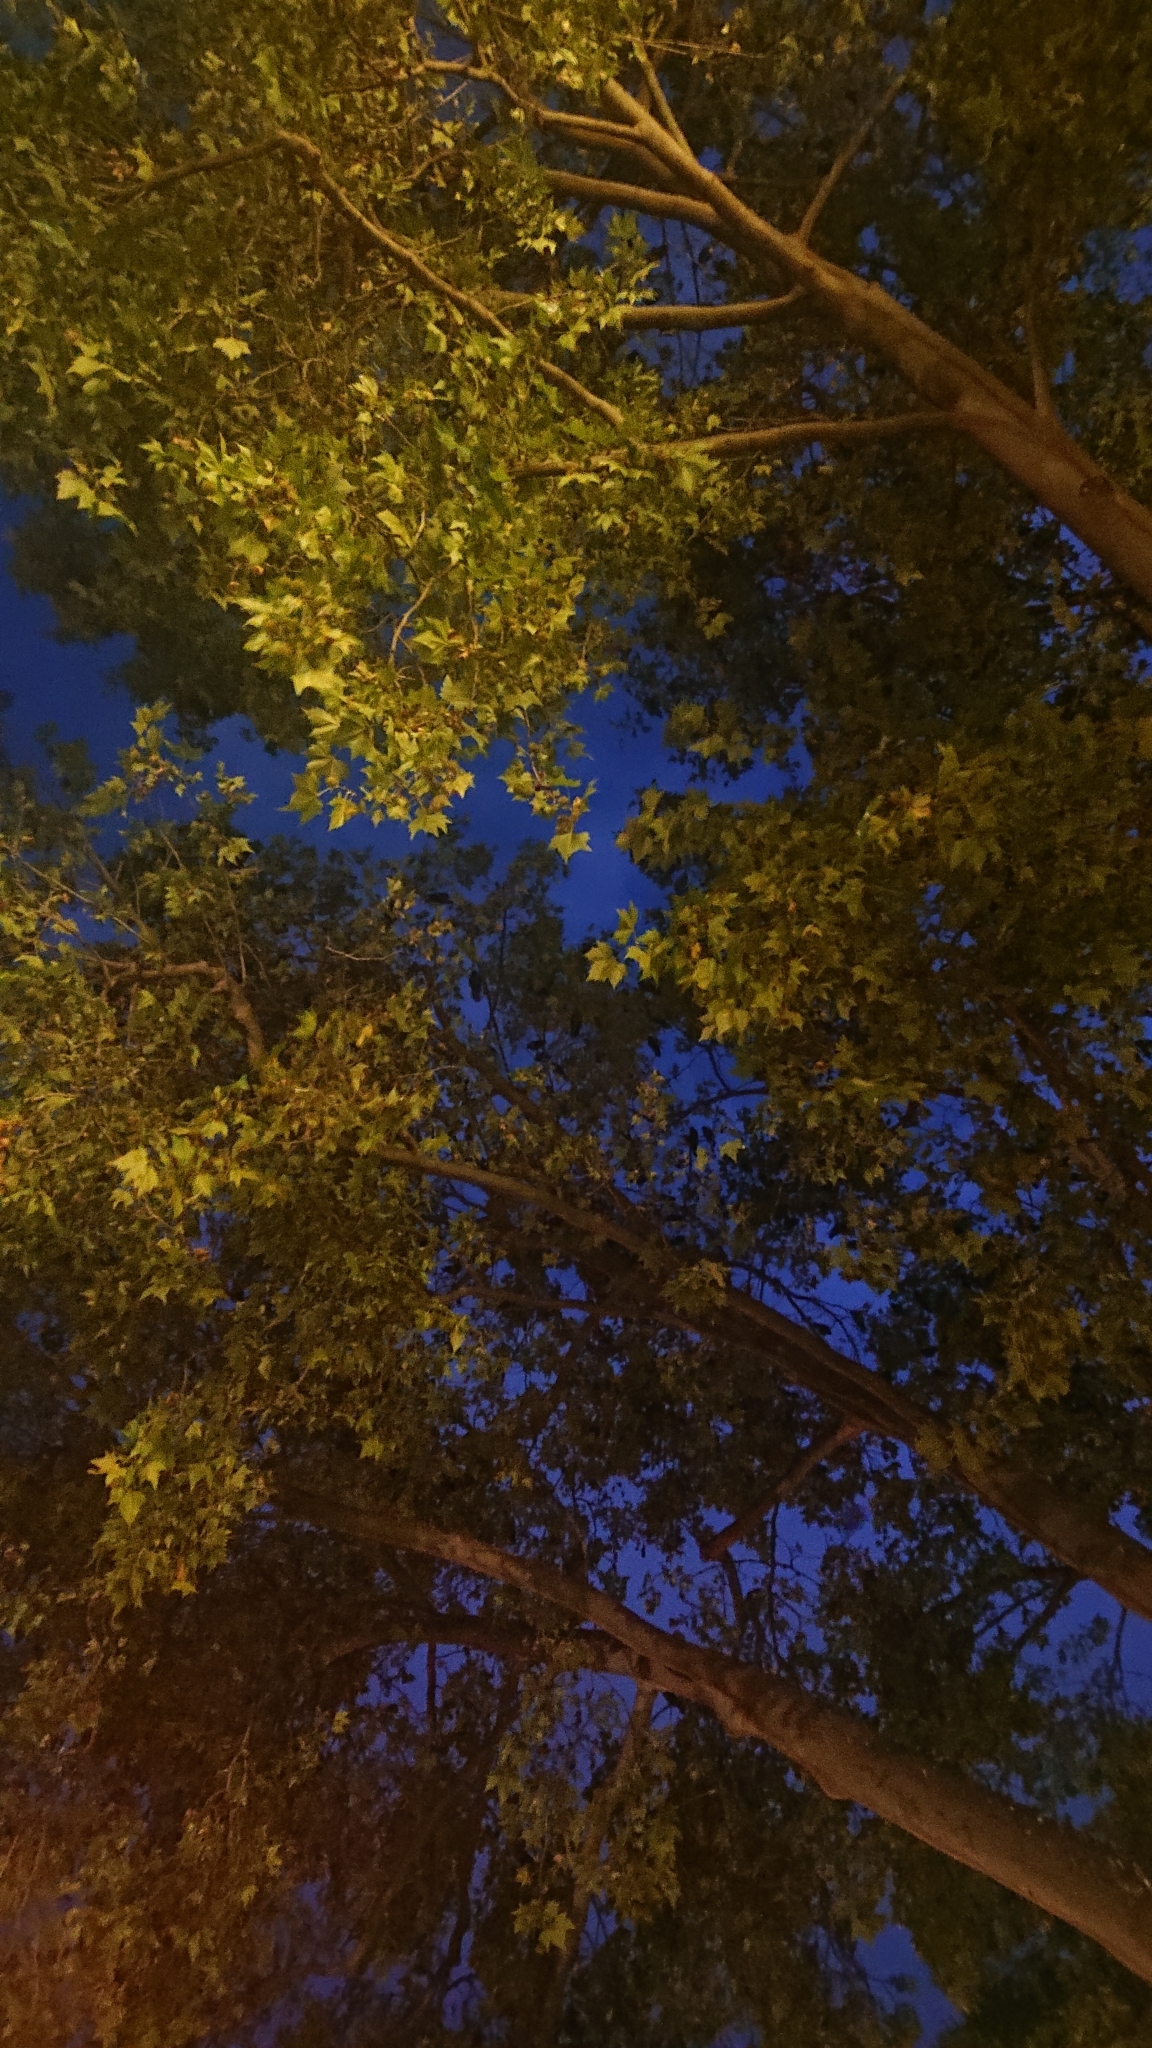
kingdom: Animalia
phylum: Chordata
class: Aves
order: Passeriformes
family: Corvidae
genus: Coloeus
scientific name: Coloeus monedula
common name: Western jackdaw
